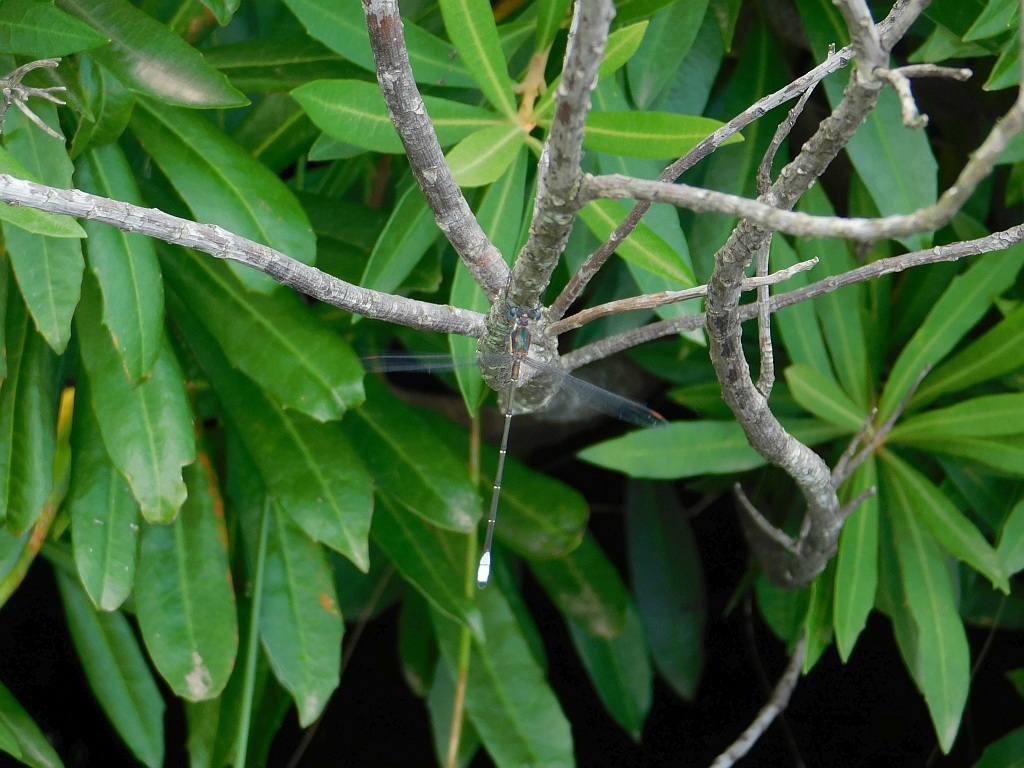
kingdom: Animalia
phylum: Arthropoda
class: Insecta
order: Odonata
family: Synlestidae
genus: Chlorolestes
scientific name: Chlorolestes conspicuus
